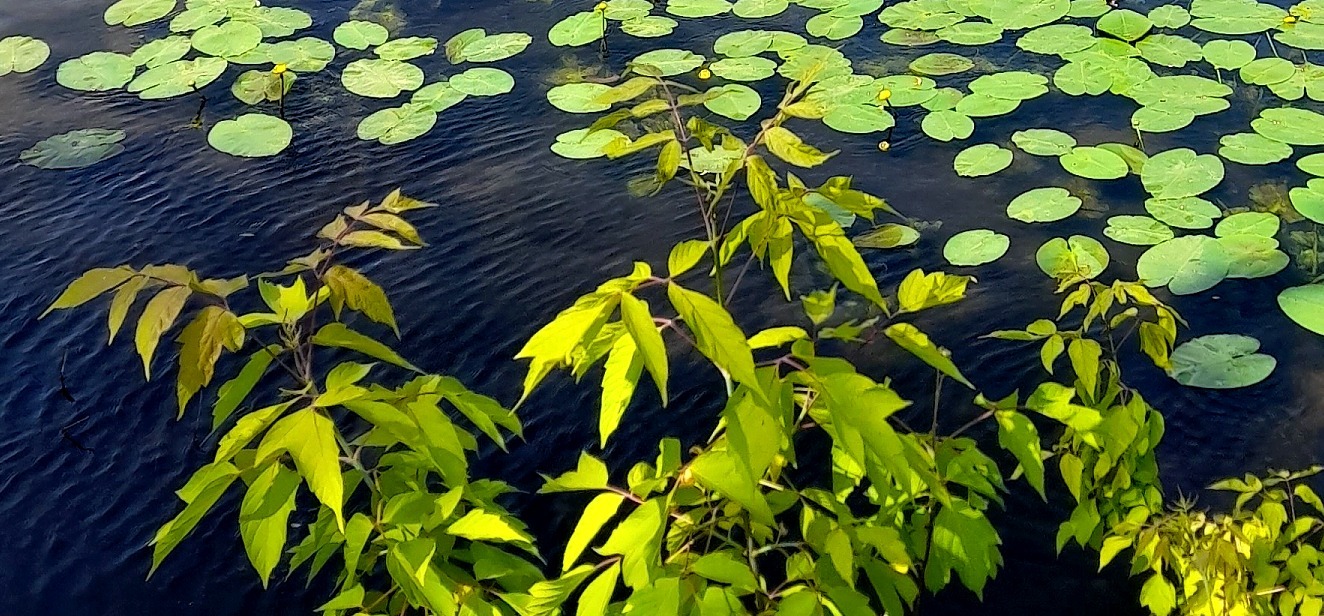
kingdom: Plantae
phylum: Tracheophyta
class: Magnoliopsida
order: Sapindales
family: Sapindaceae
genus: Acer
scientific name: Acer negundo
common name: Ashleaf maple
